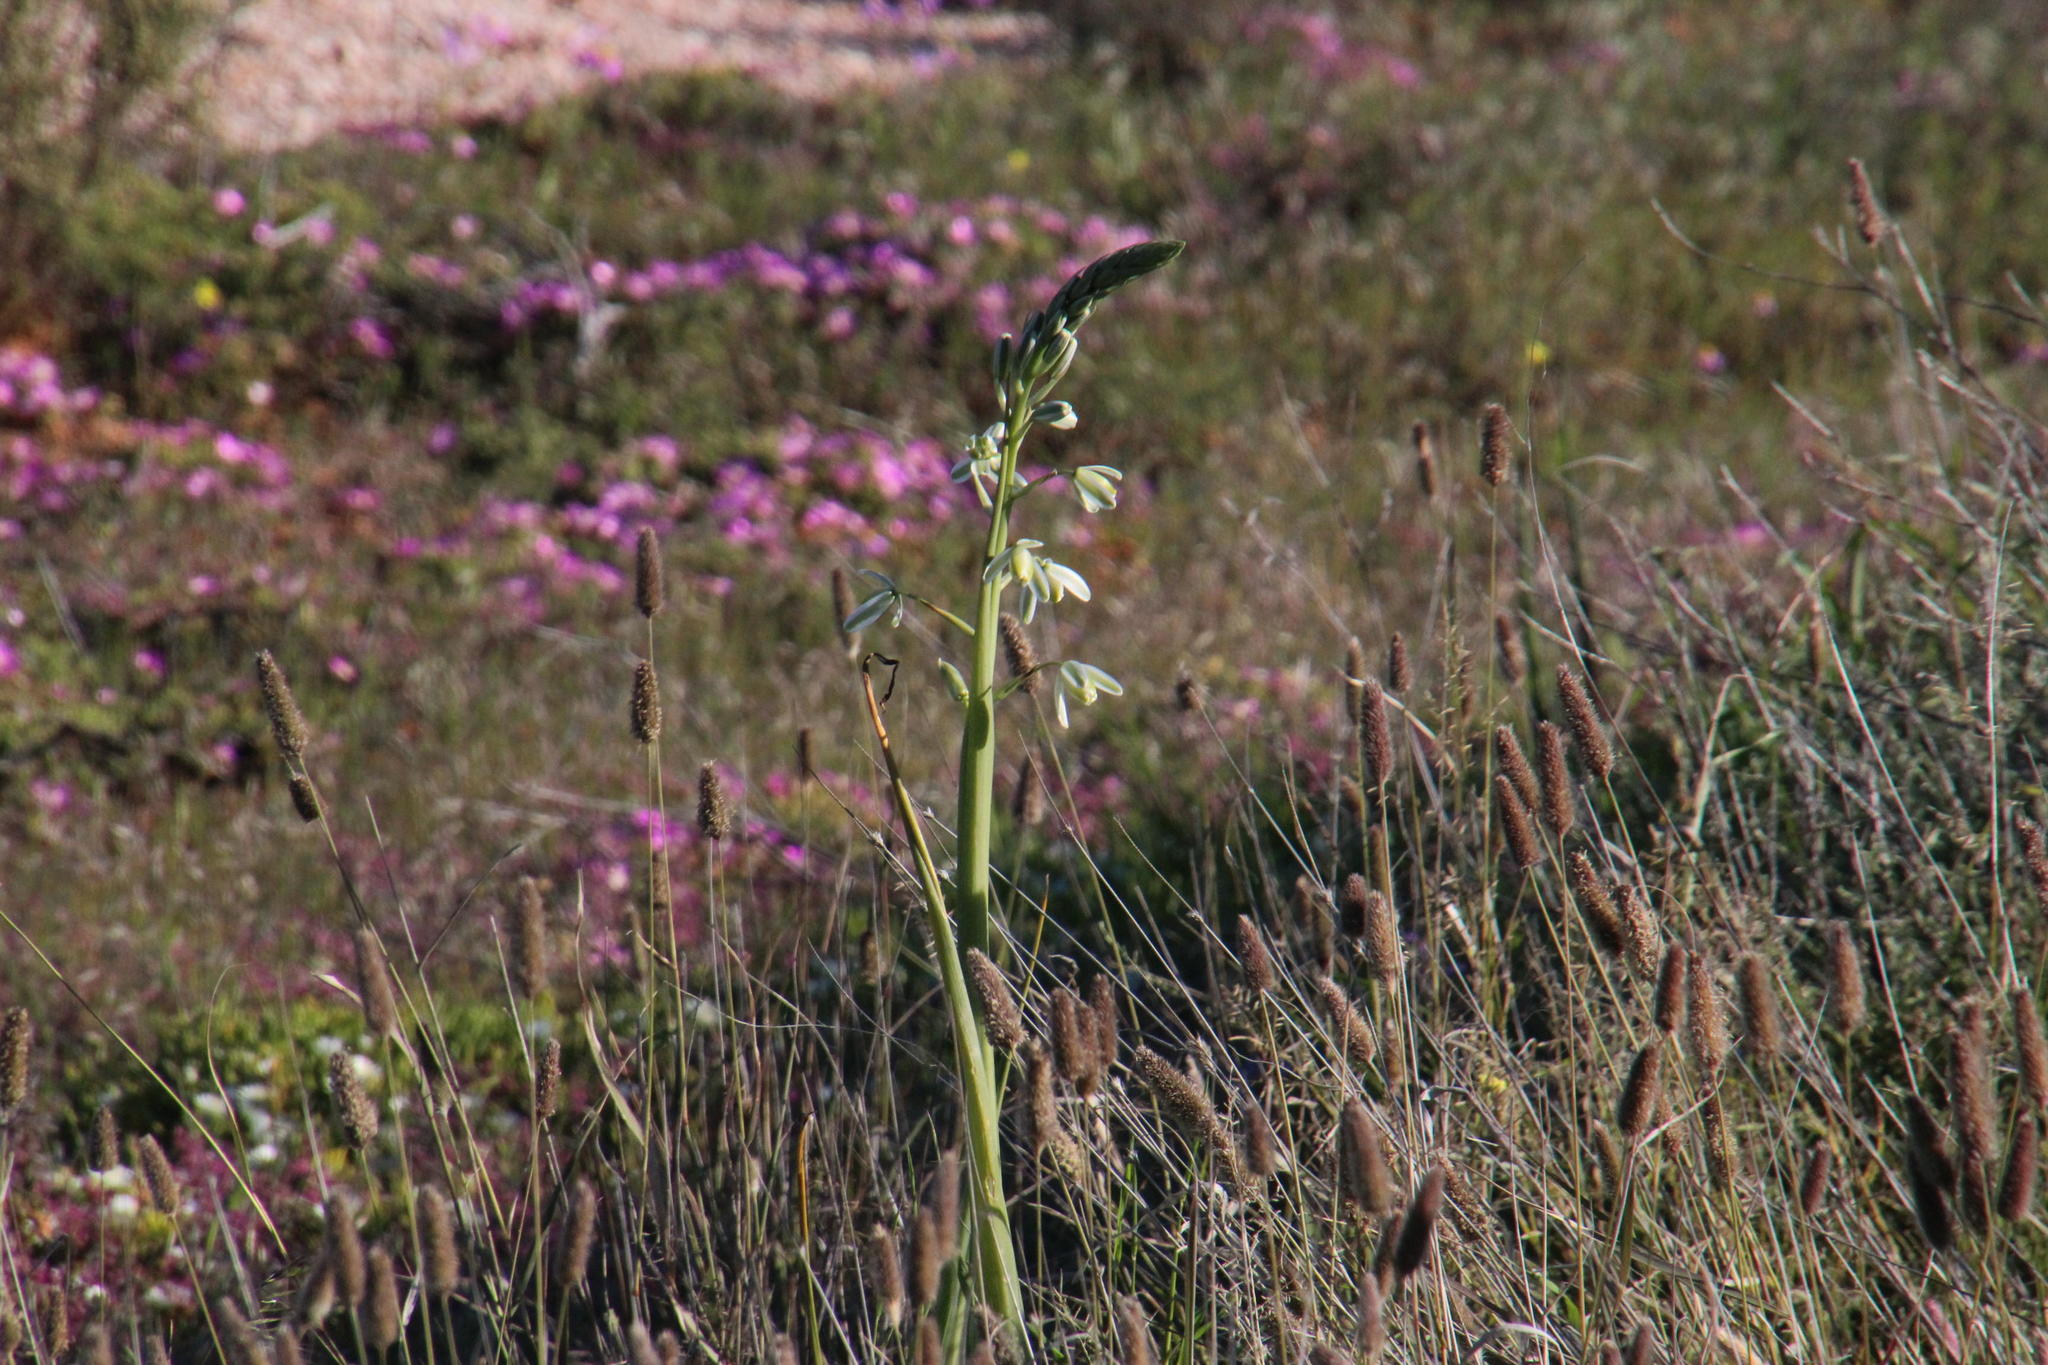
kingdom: Plantae
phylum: Tracheophyta
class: Liliopsida
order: Asparagales
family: Asparagaceae
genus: Albuca
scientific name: Albuca canadensis
